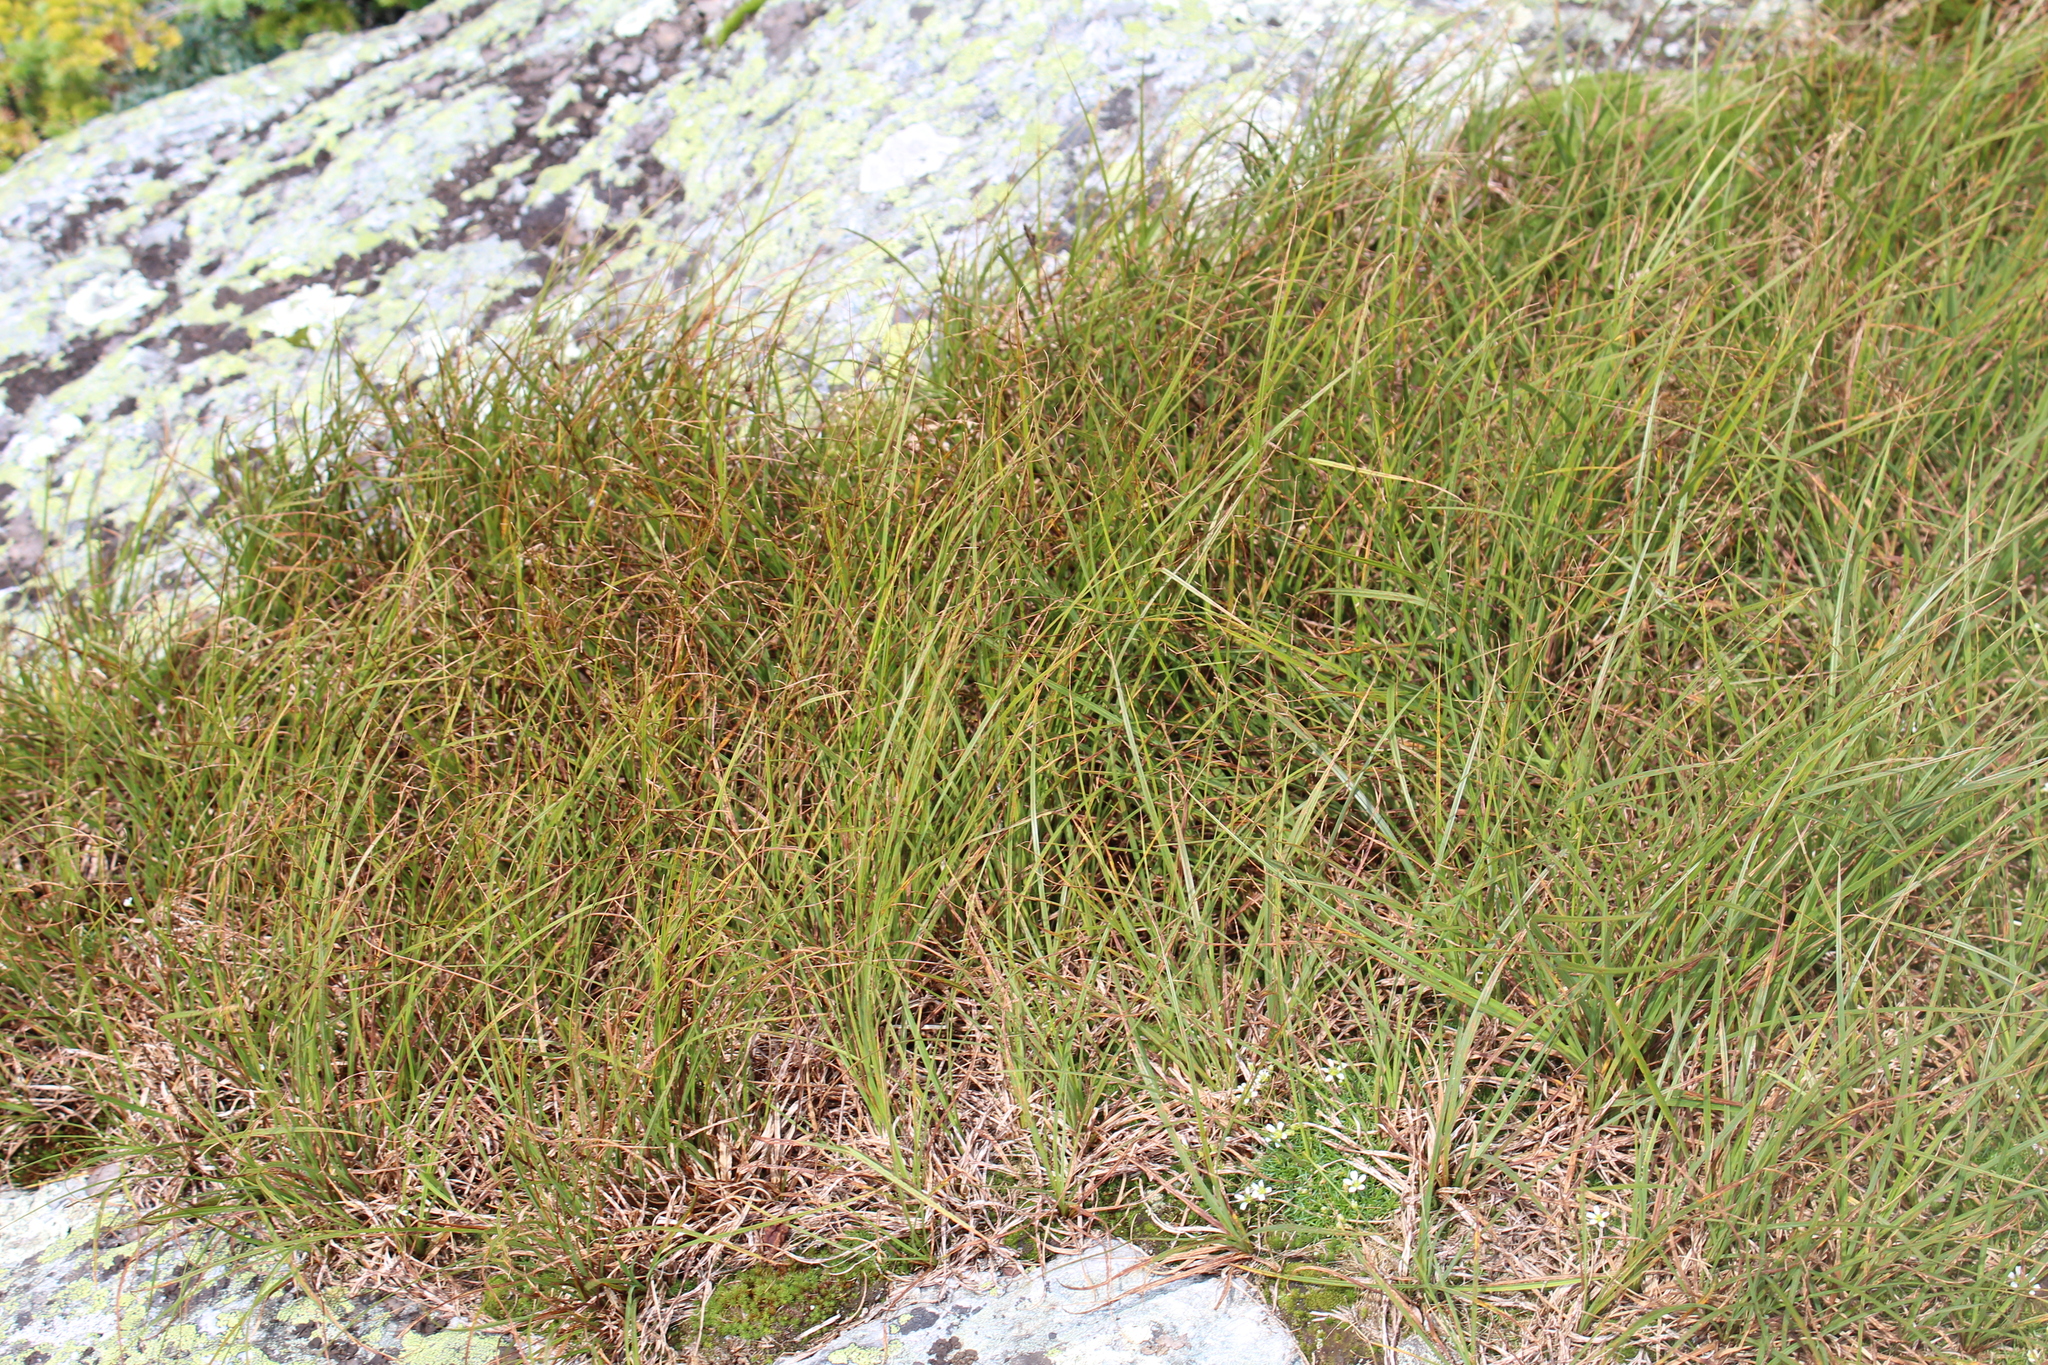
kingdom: Plantae
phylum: Tracheophyta
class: Liliopsida
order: Poales
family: Cyperaceae
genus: Carex
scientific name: Carex bigelowii
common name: Stiff sedge
